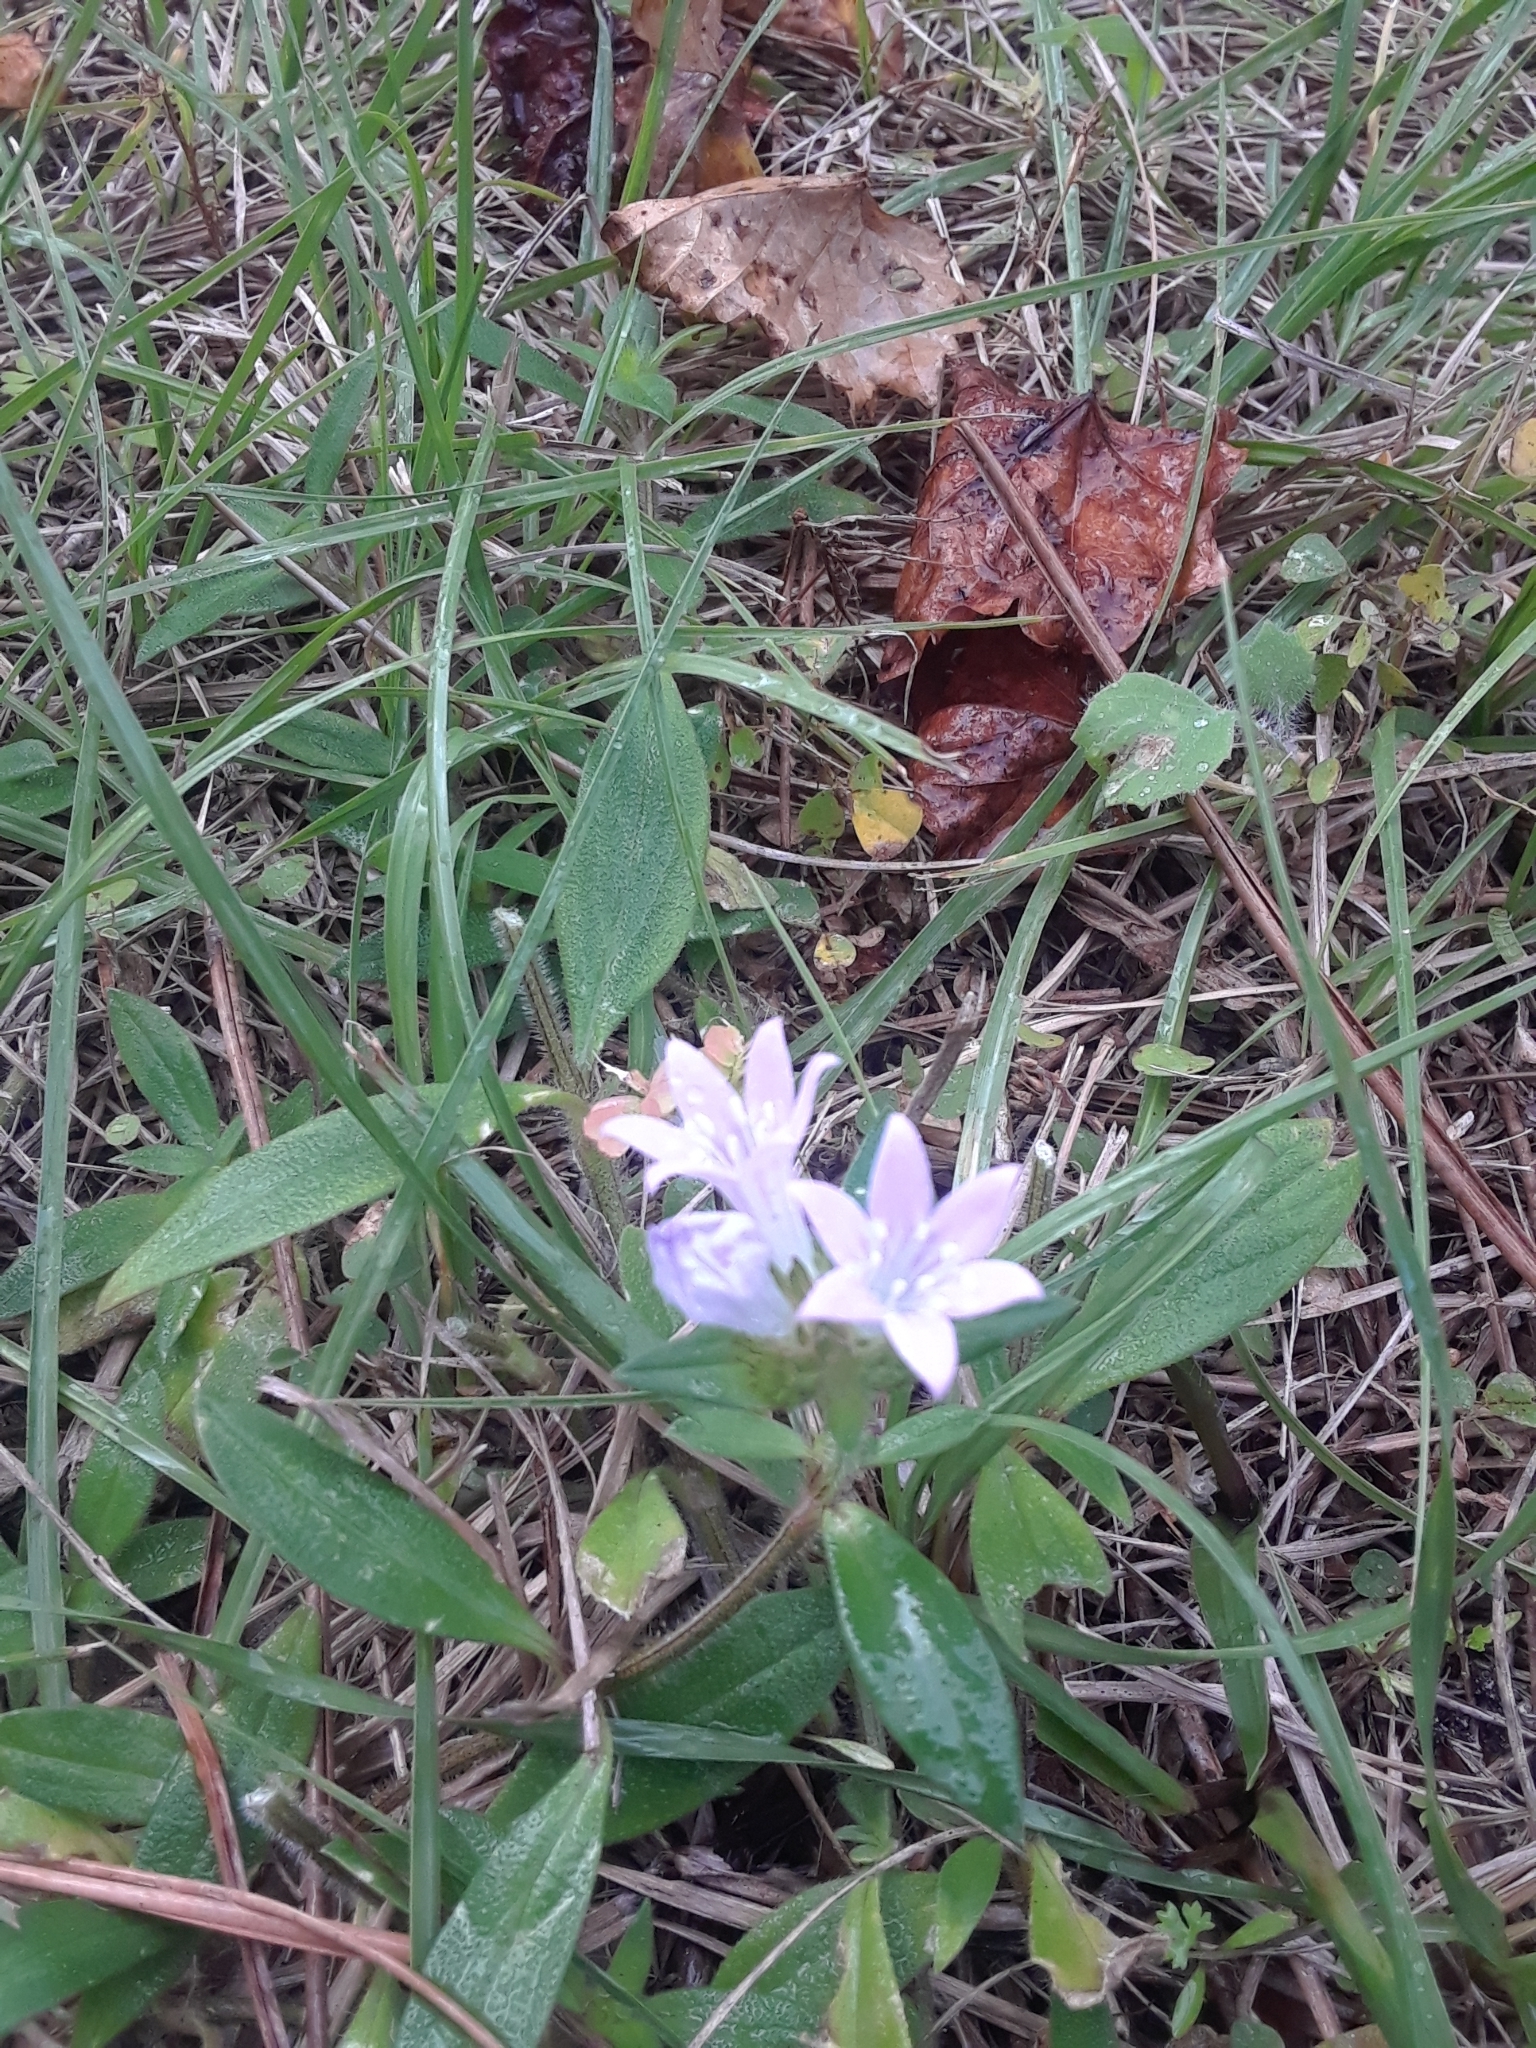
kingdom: Plantae
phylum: Tracheophyta
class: Magnoliopsida
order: Gentianales
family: Rubiaceae
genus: Richardia
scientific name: Richardia grandiflora
